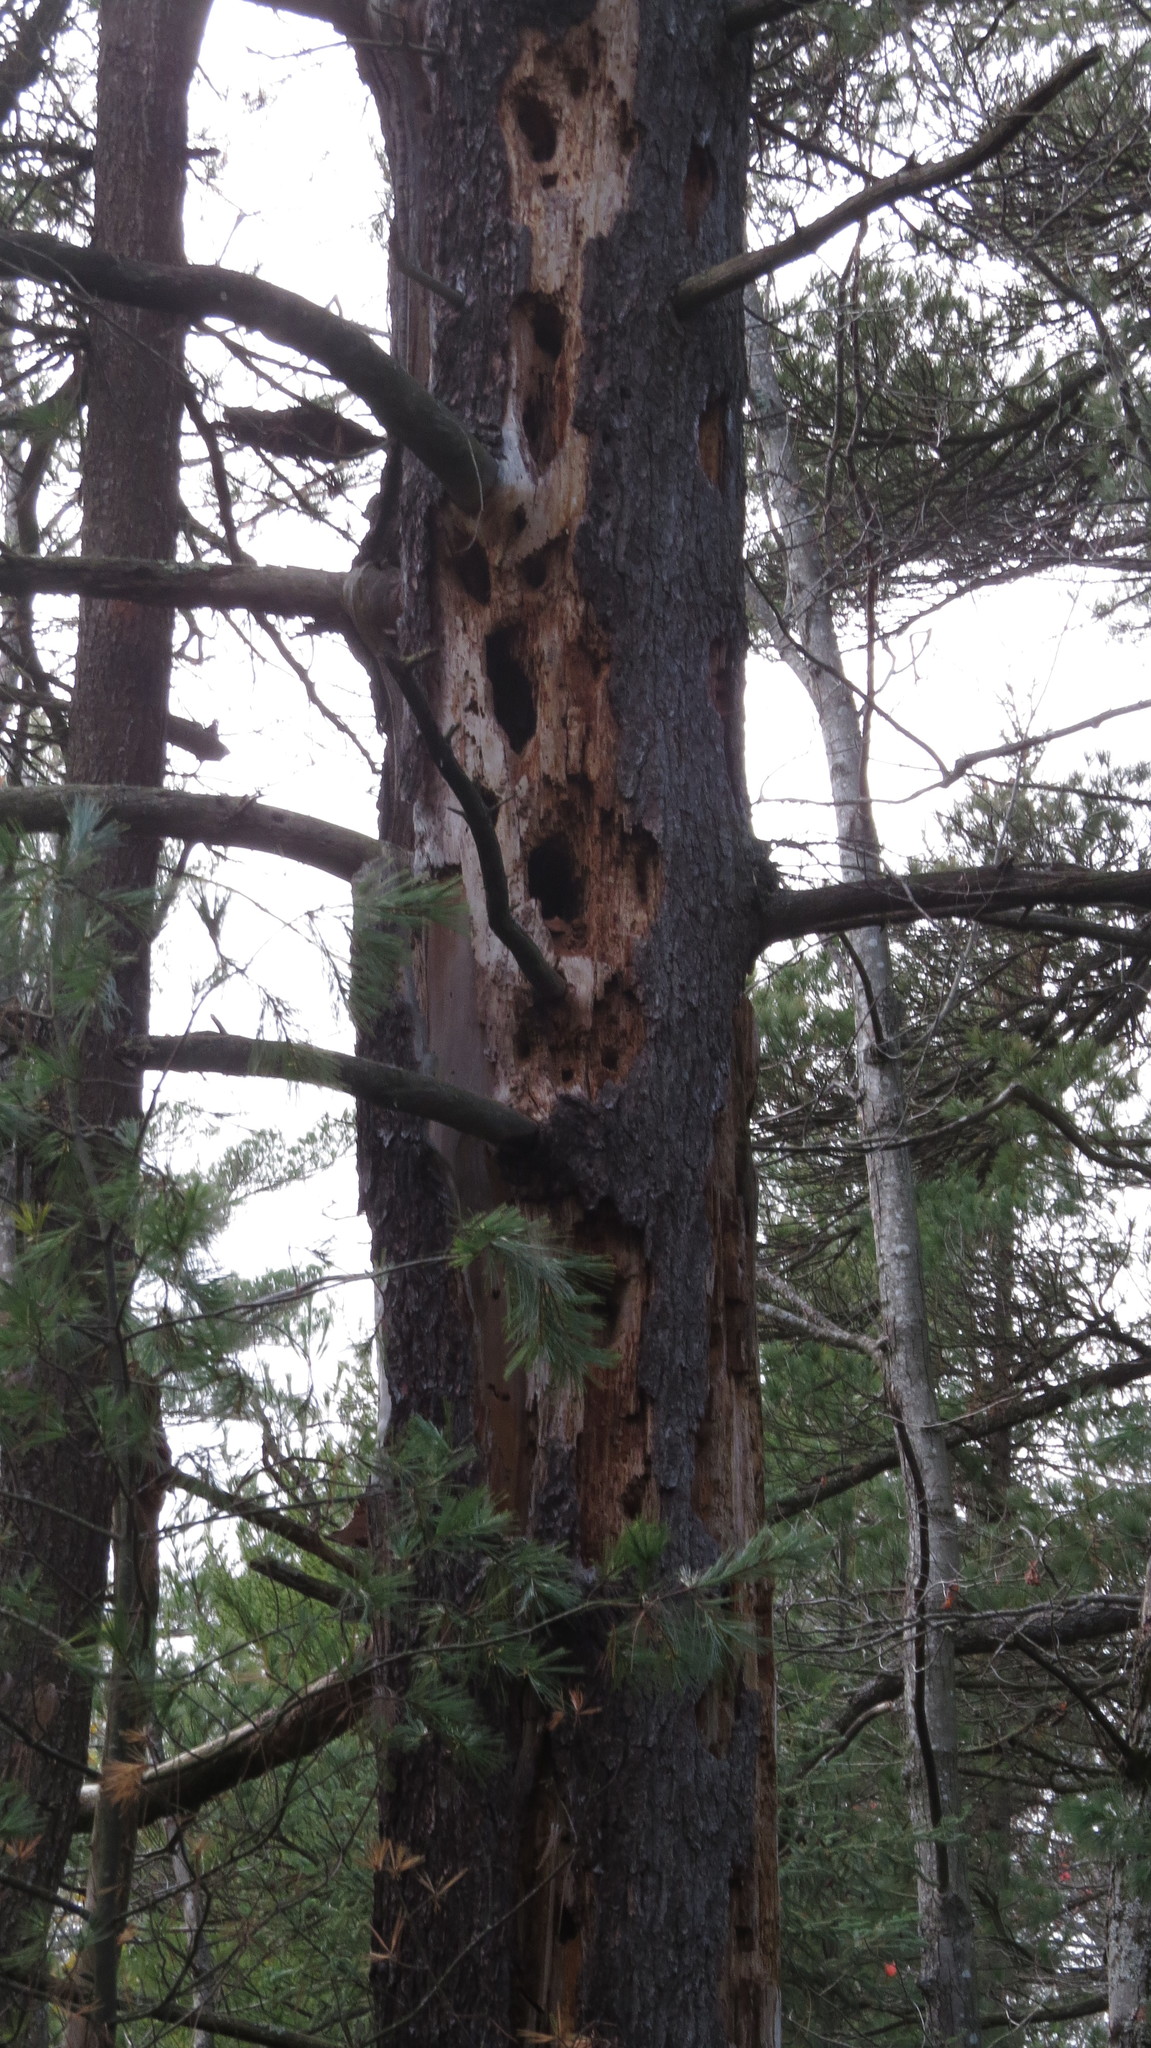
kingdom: Animalia
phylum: Chordata
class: Aves
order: Piciformes
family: Picidae
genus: Dryocopus
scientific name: Dryocopus pileatus
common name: Pileated woodpecker
